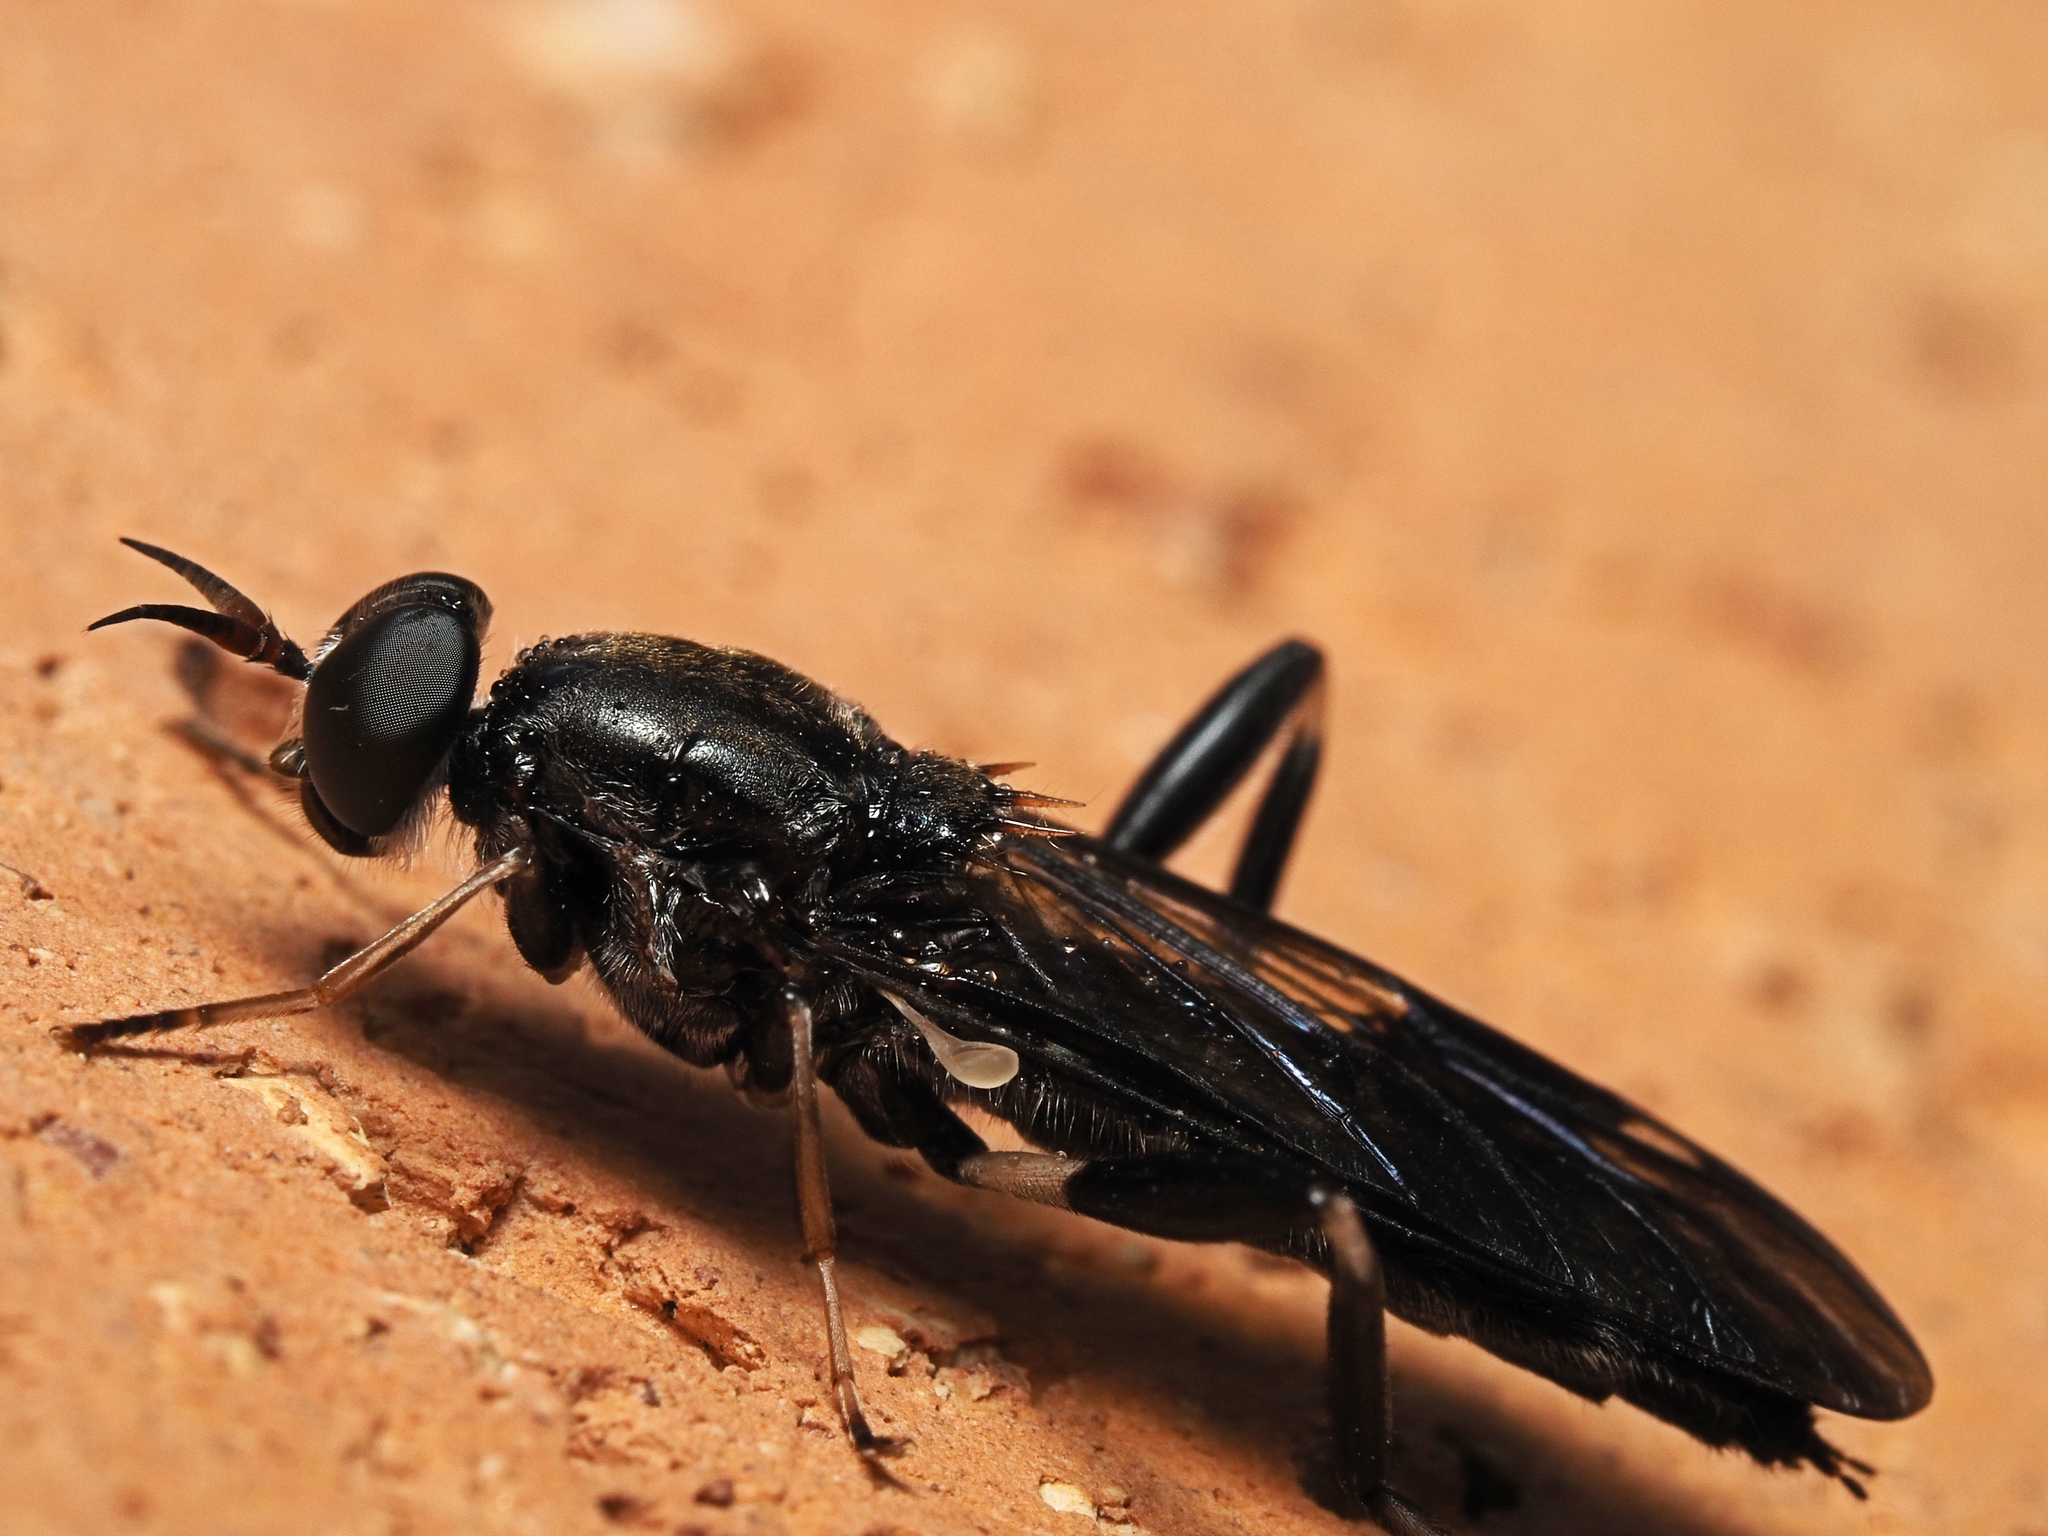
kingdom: Animalia
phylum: Arthropoda
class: Insecta
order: Diptera
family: Stratiomyidae
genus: Exaireta
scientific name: Exaireta spinigera
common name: Blue soldier fly
